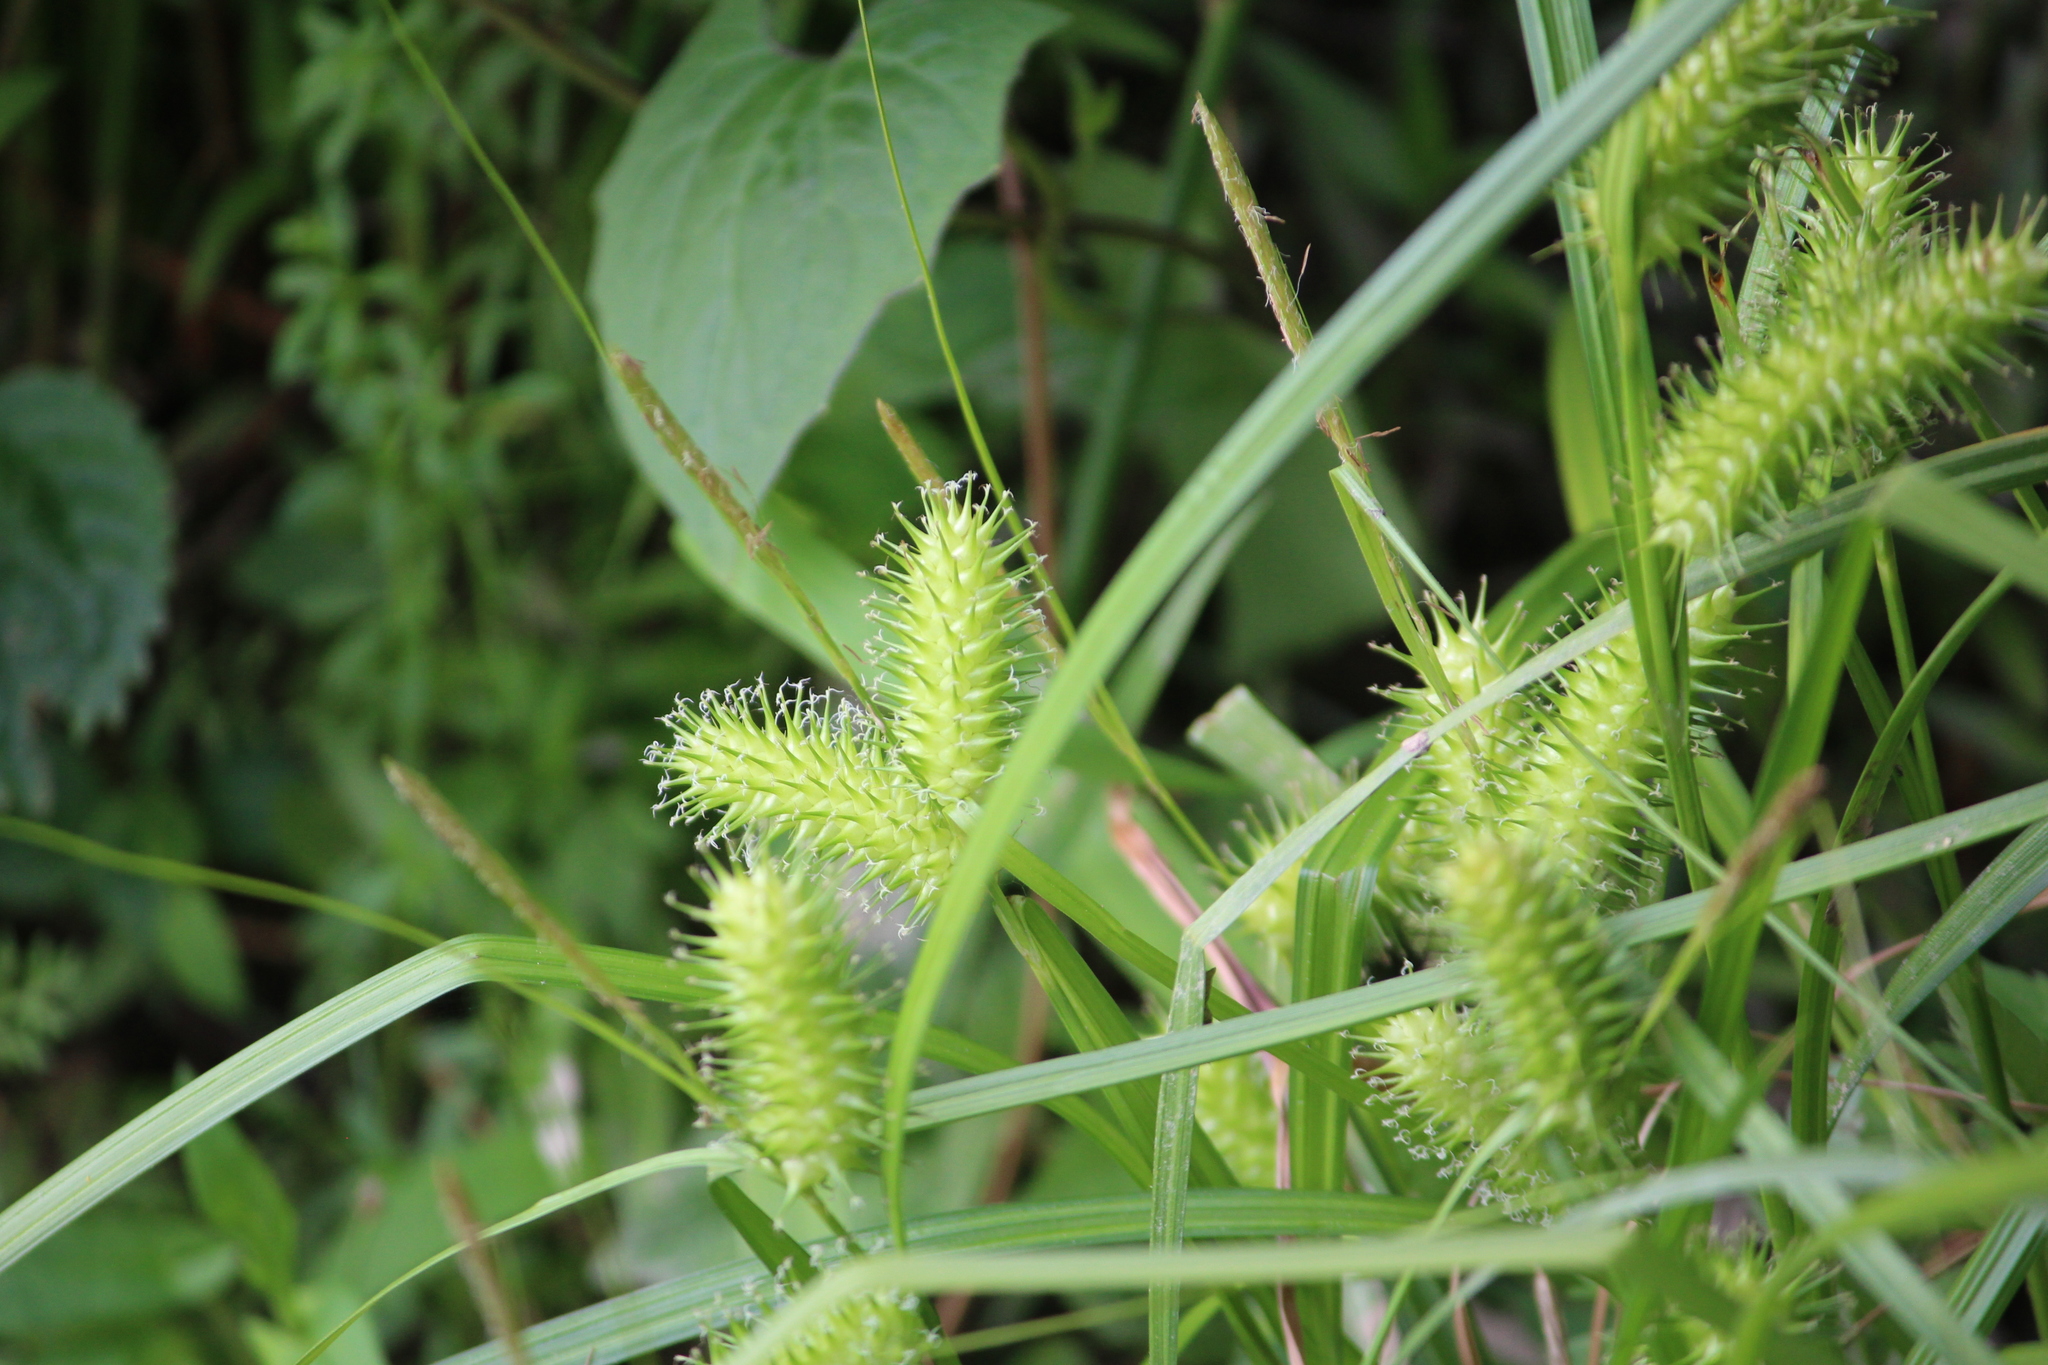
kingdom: Plantae
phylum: Tracheophyta
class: Liliopsida
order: Poales
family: Cyperaceae
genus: Carex
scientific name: Carex lurida
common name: Sallow sedge
